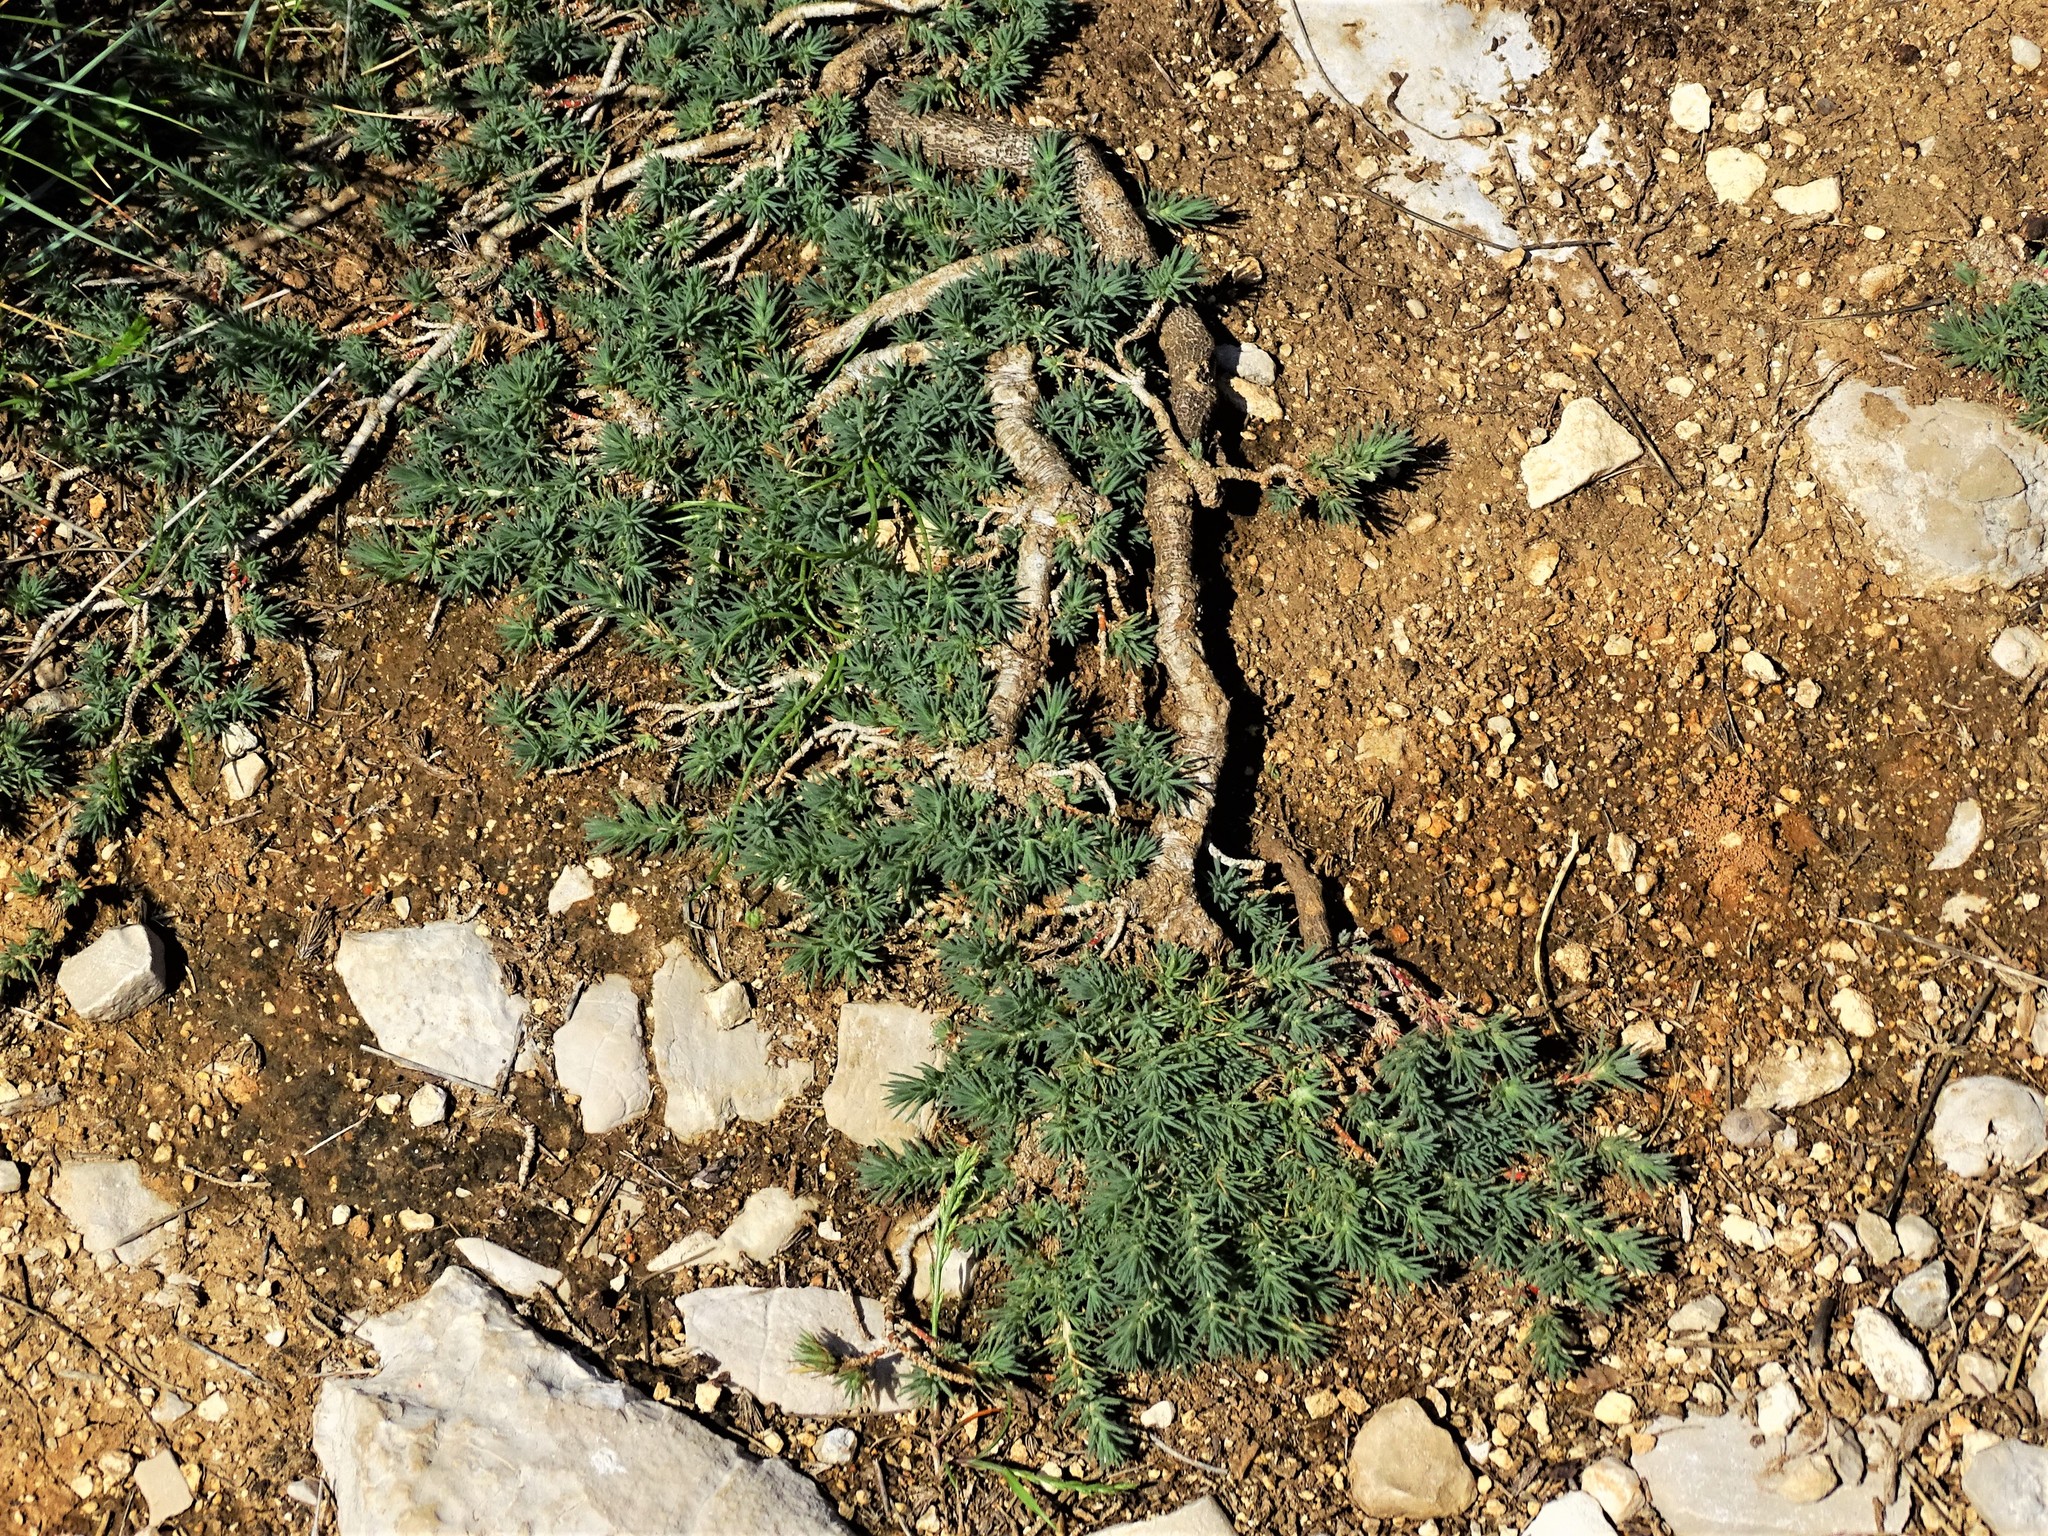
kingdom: Plantae
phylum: Tracheophyta
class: Magnoliopsida
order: Caryophyllales
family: Amaranthaceae
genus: Camphorosma
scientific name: Camphorosma monspeliaca
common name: Camphorfume
